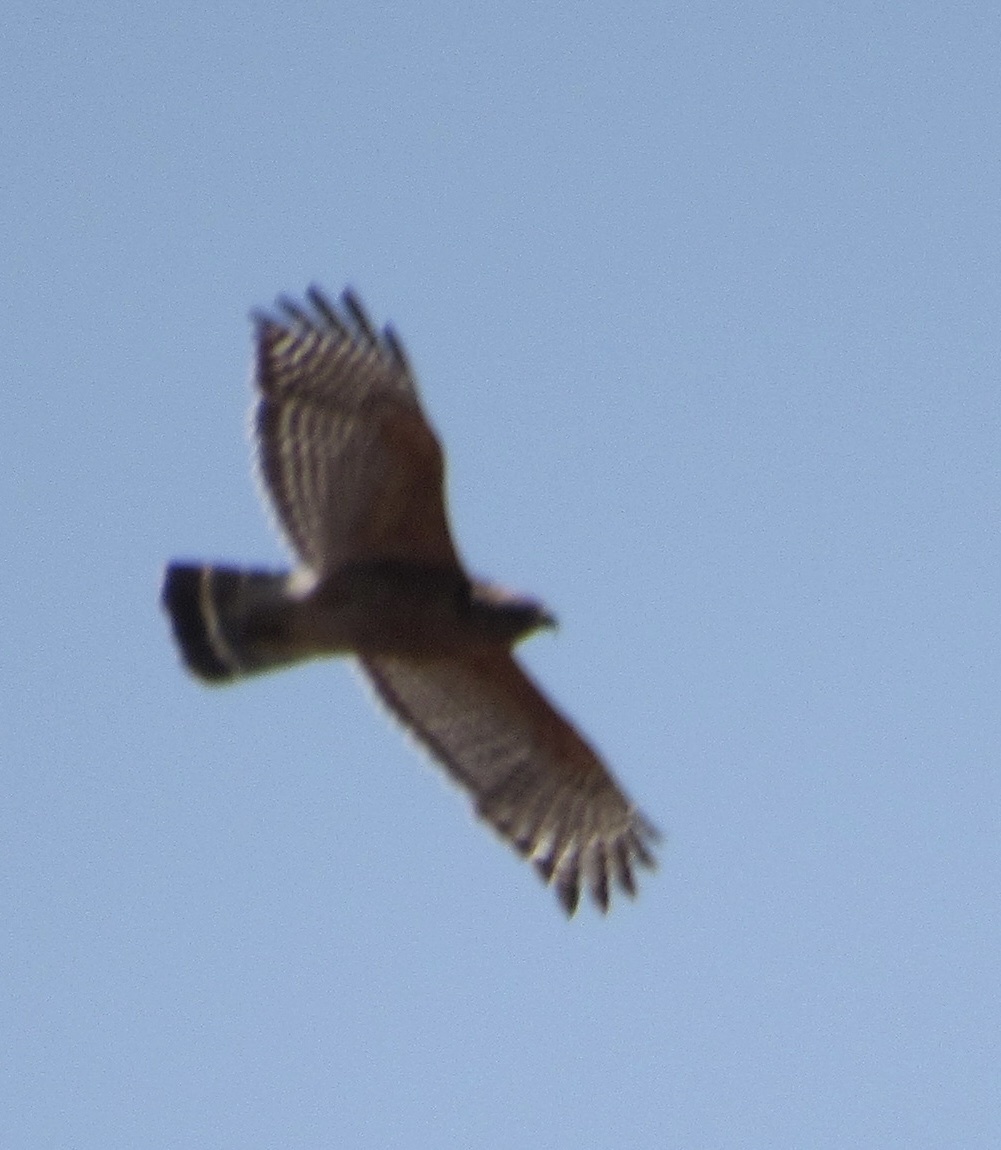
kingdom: Animalia
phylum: Chordata
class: Aves
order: Accipitriformes
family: Accipitridae
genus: Buteo
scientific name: Buteo lineatus
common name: Red-shouldered hawk
